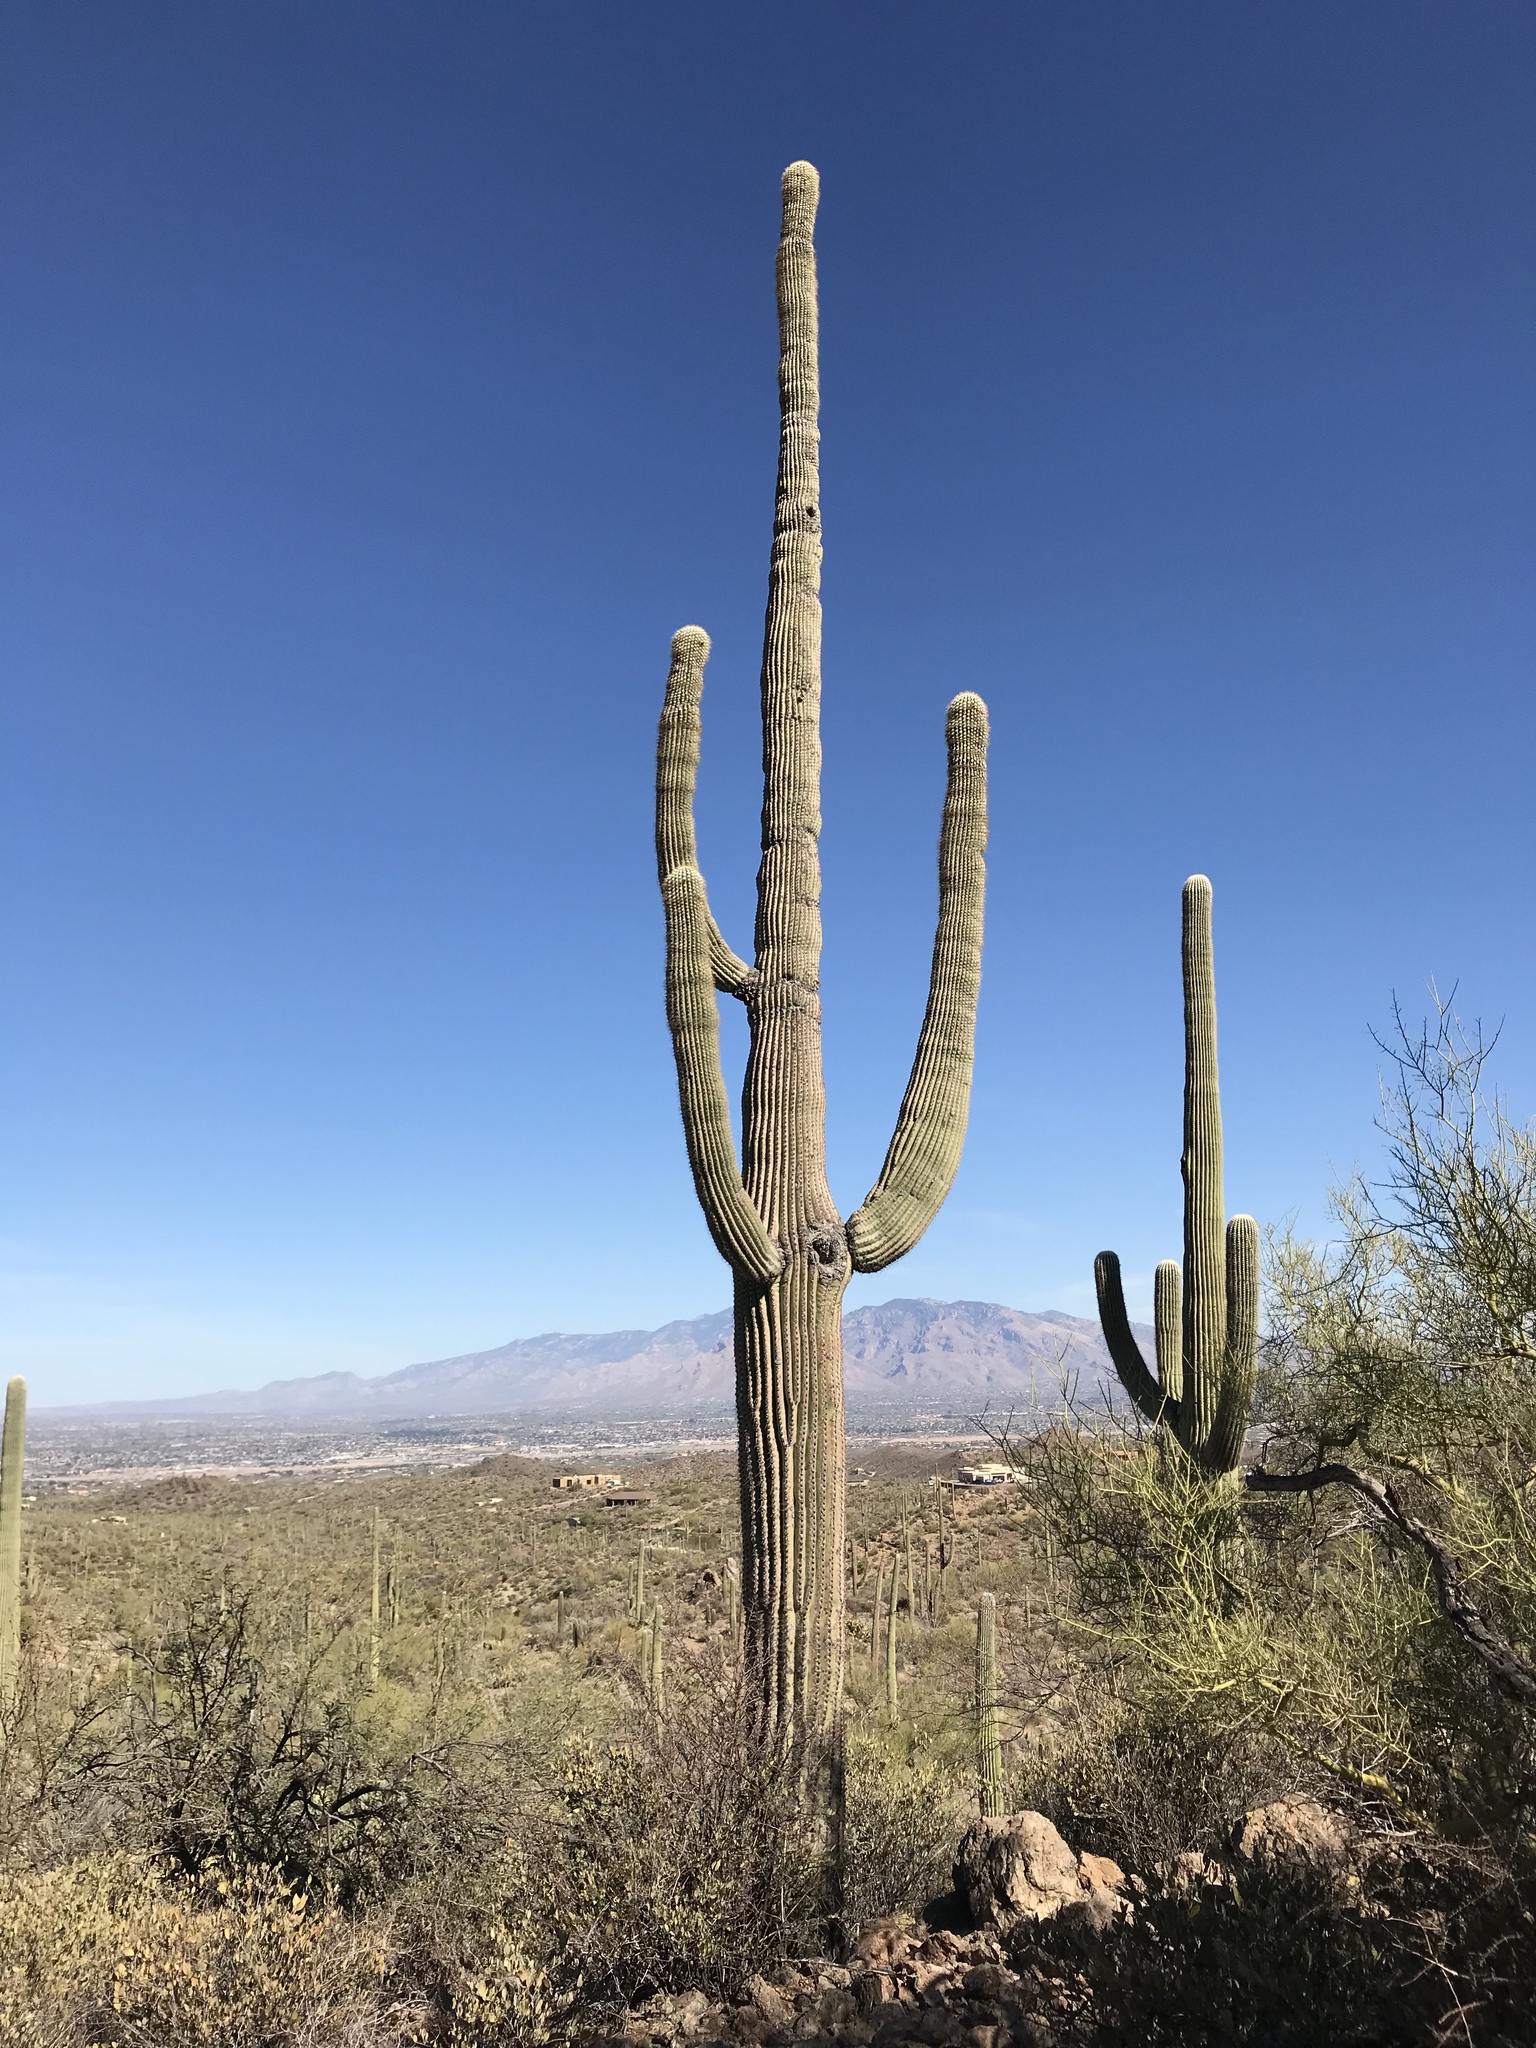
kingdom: Plantae
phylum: Tracheophyta
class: Magnoliopsida
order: Caryophyllales
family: Cactaceae
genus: Carnegiea
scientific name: Carnegiea gigantea
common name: Saguaro
